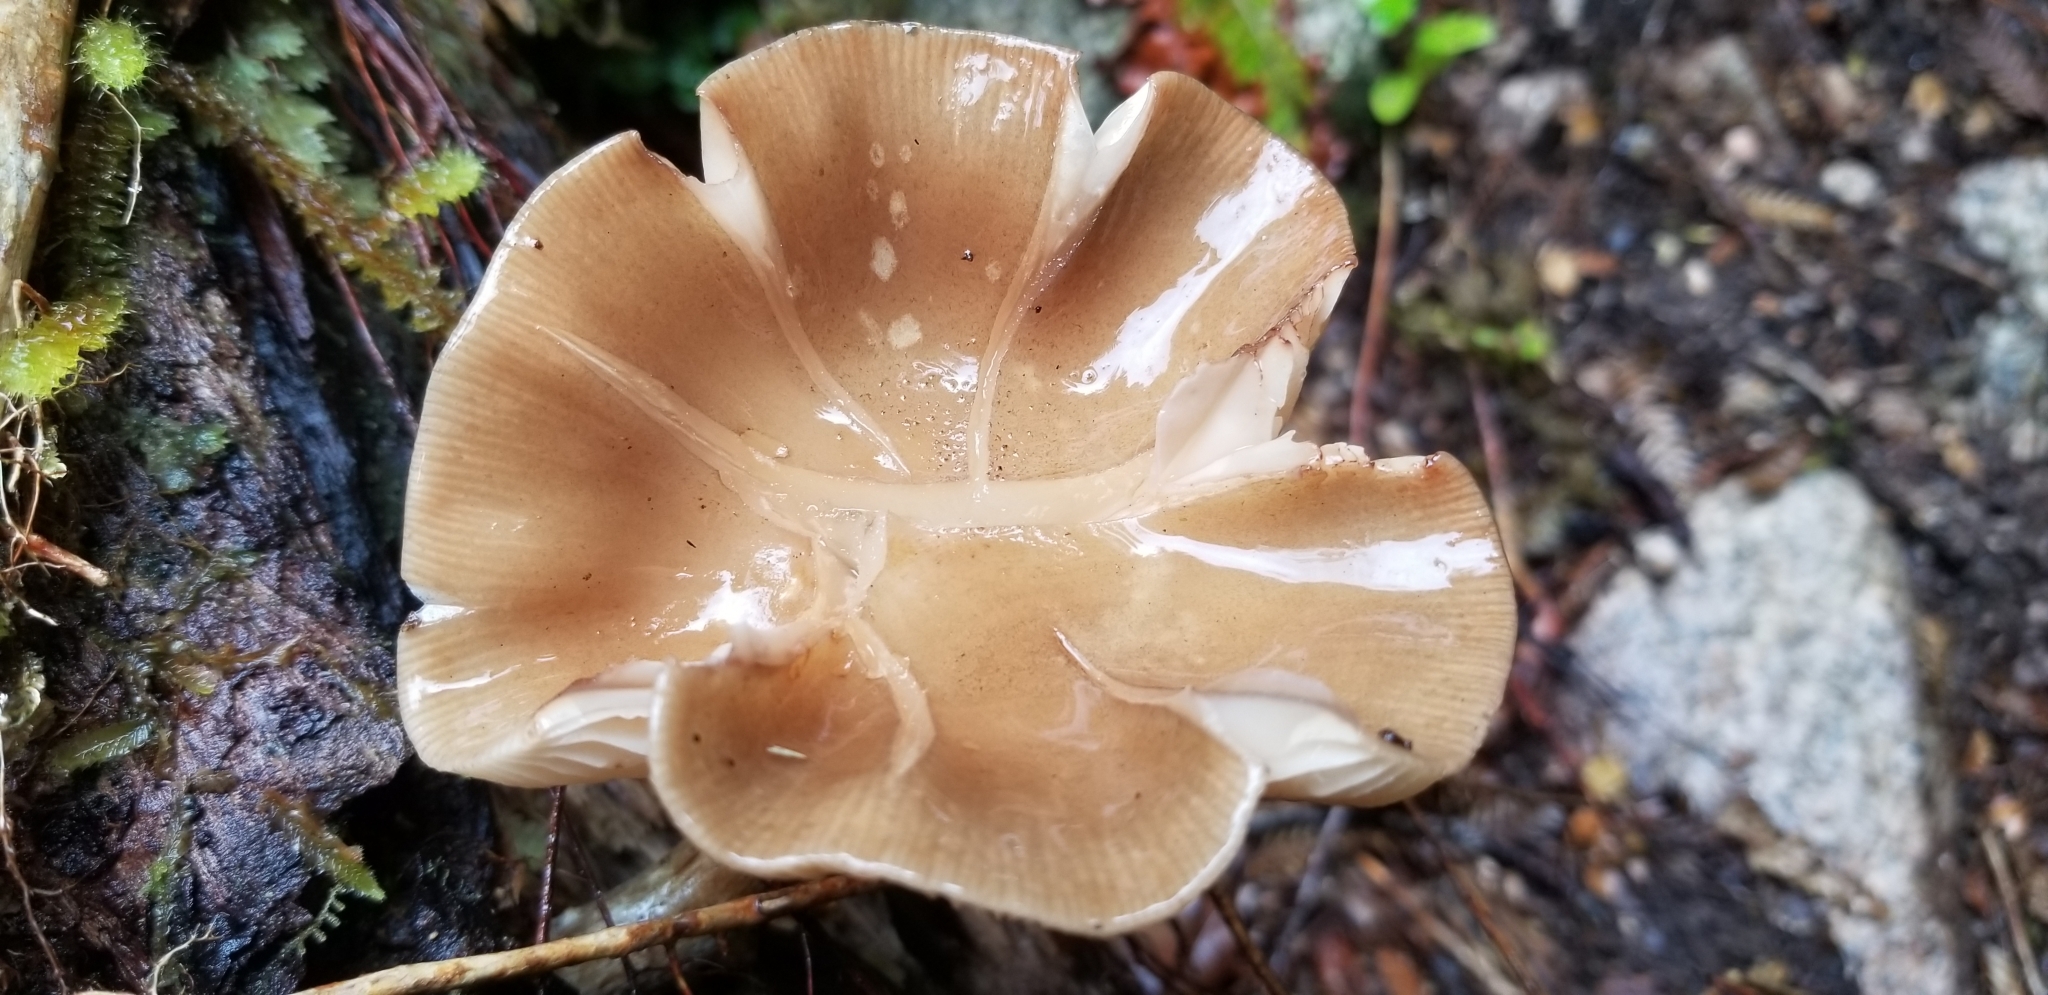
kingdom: Fungi
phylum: Basidiomycota
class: Agaricomycetes
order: Agaricales
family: Physalacriaceae
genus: Armillaria
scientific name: Armillaria novae-zelandiae
